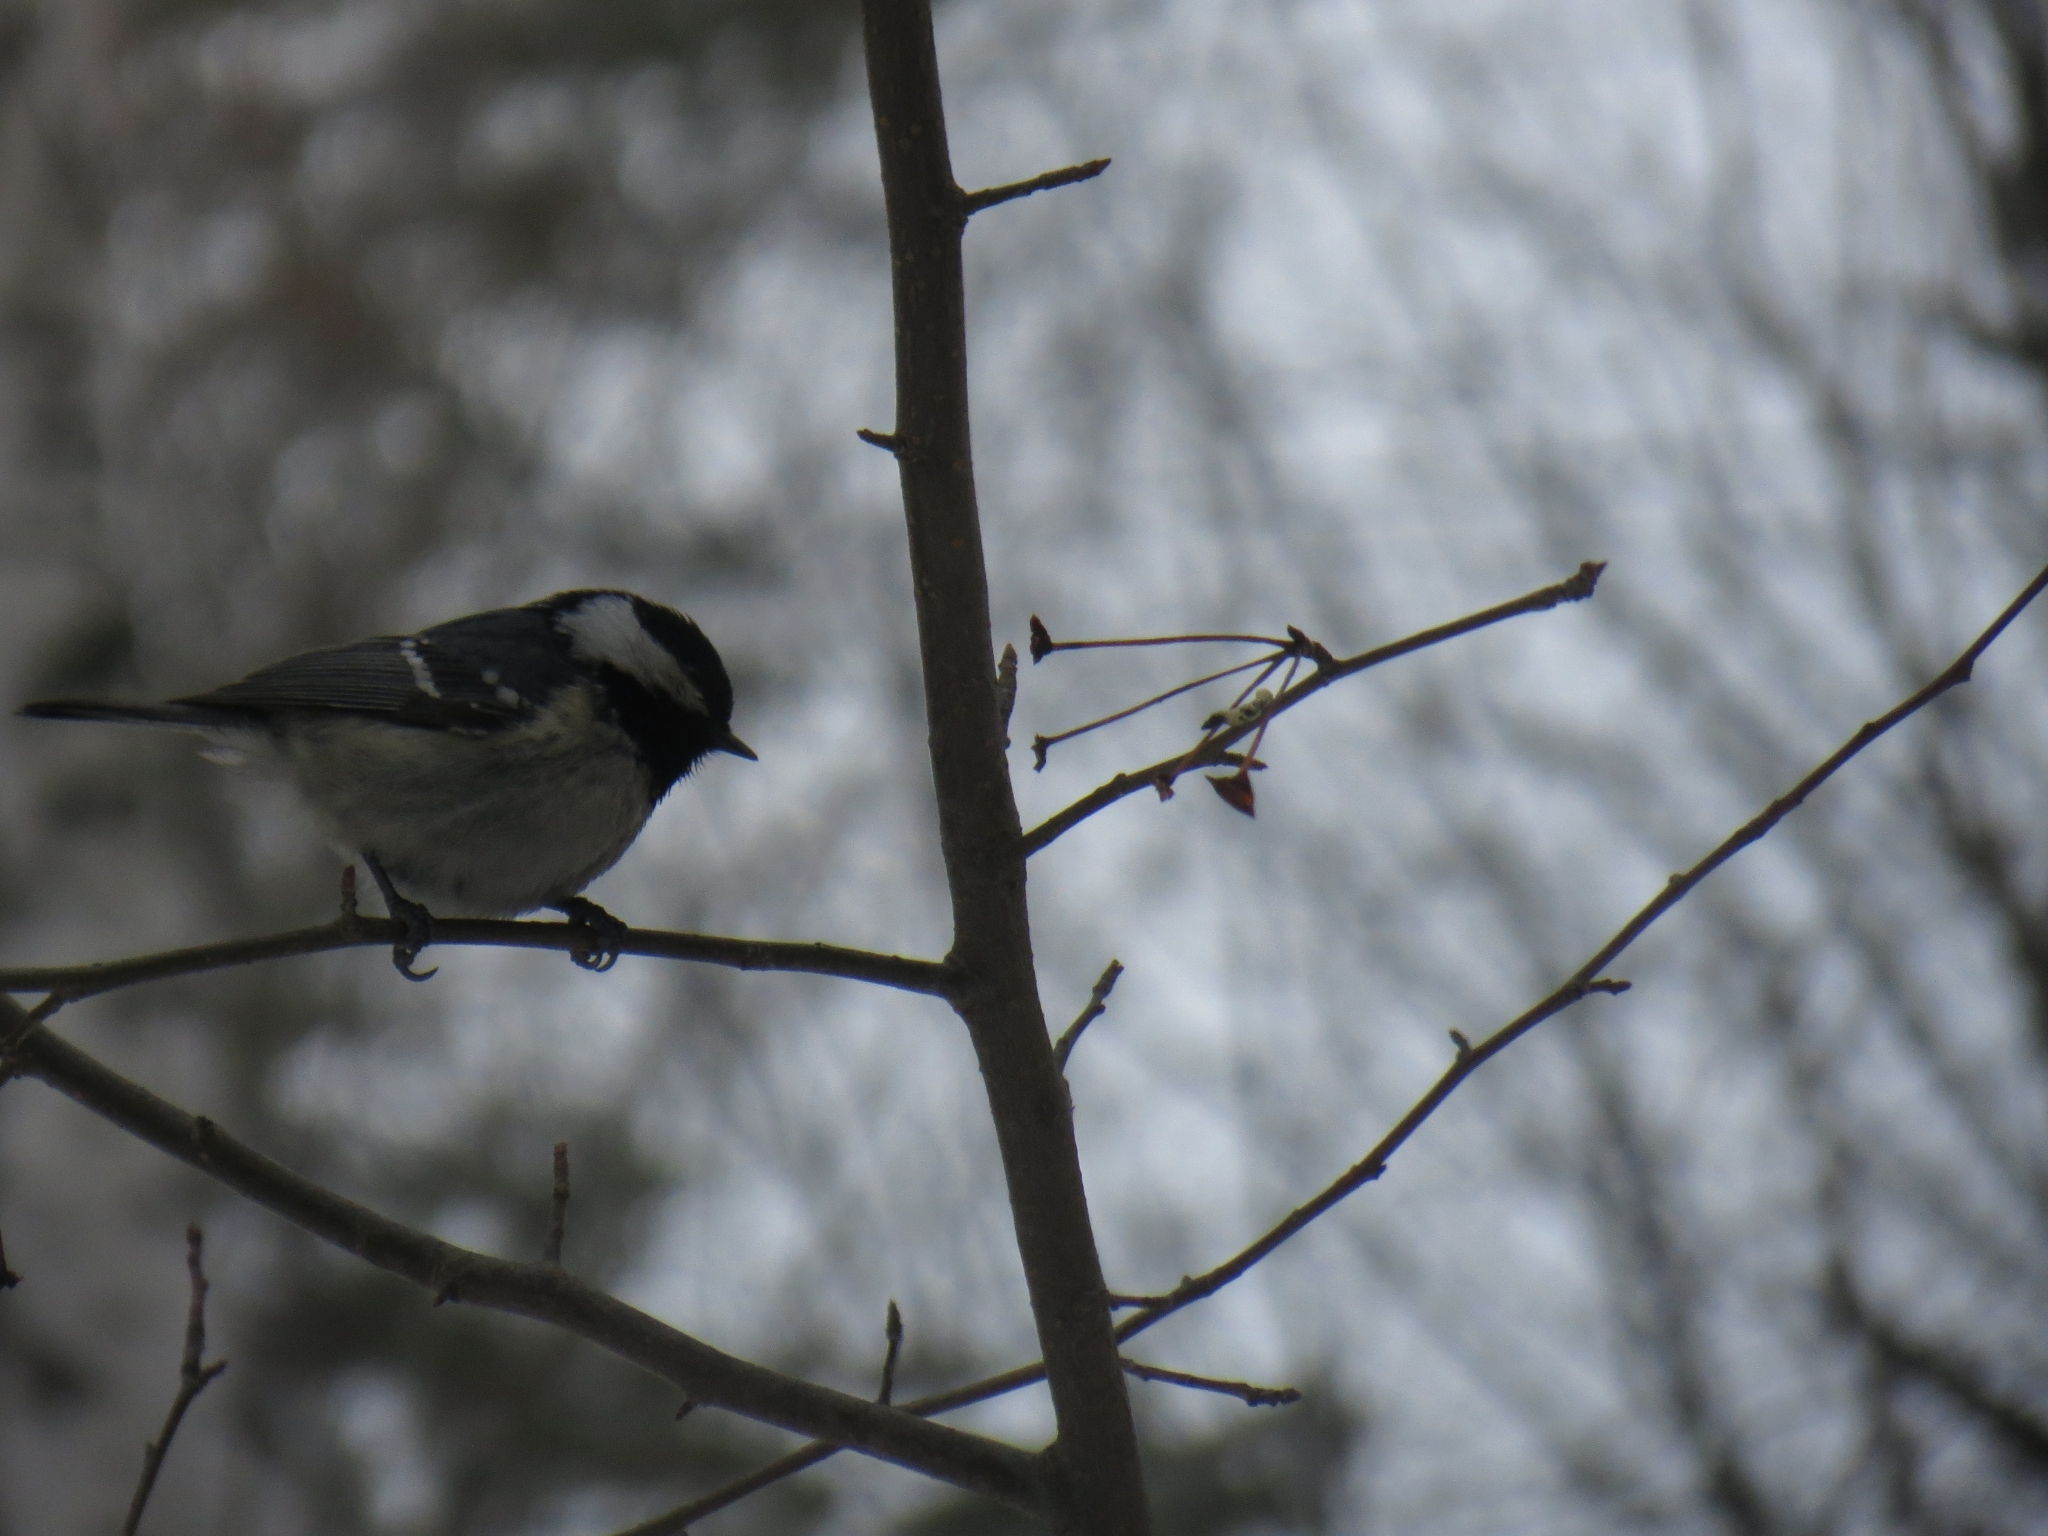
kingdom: Animalia
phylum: Chordata
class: Aves
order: Passeriformes
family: Paridae
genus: Periparus
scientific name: Periparus ater
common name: Coal tit
